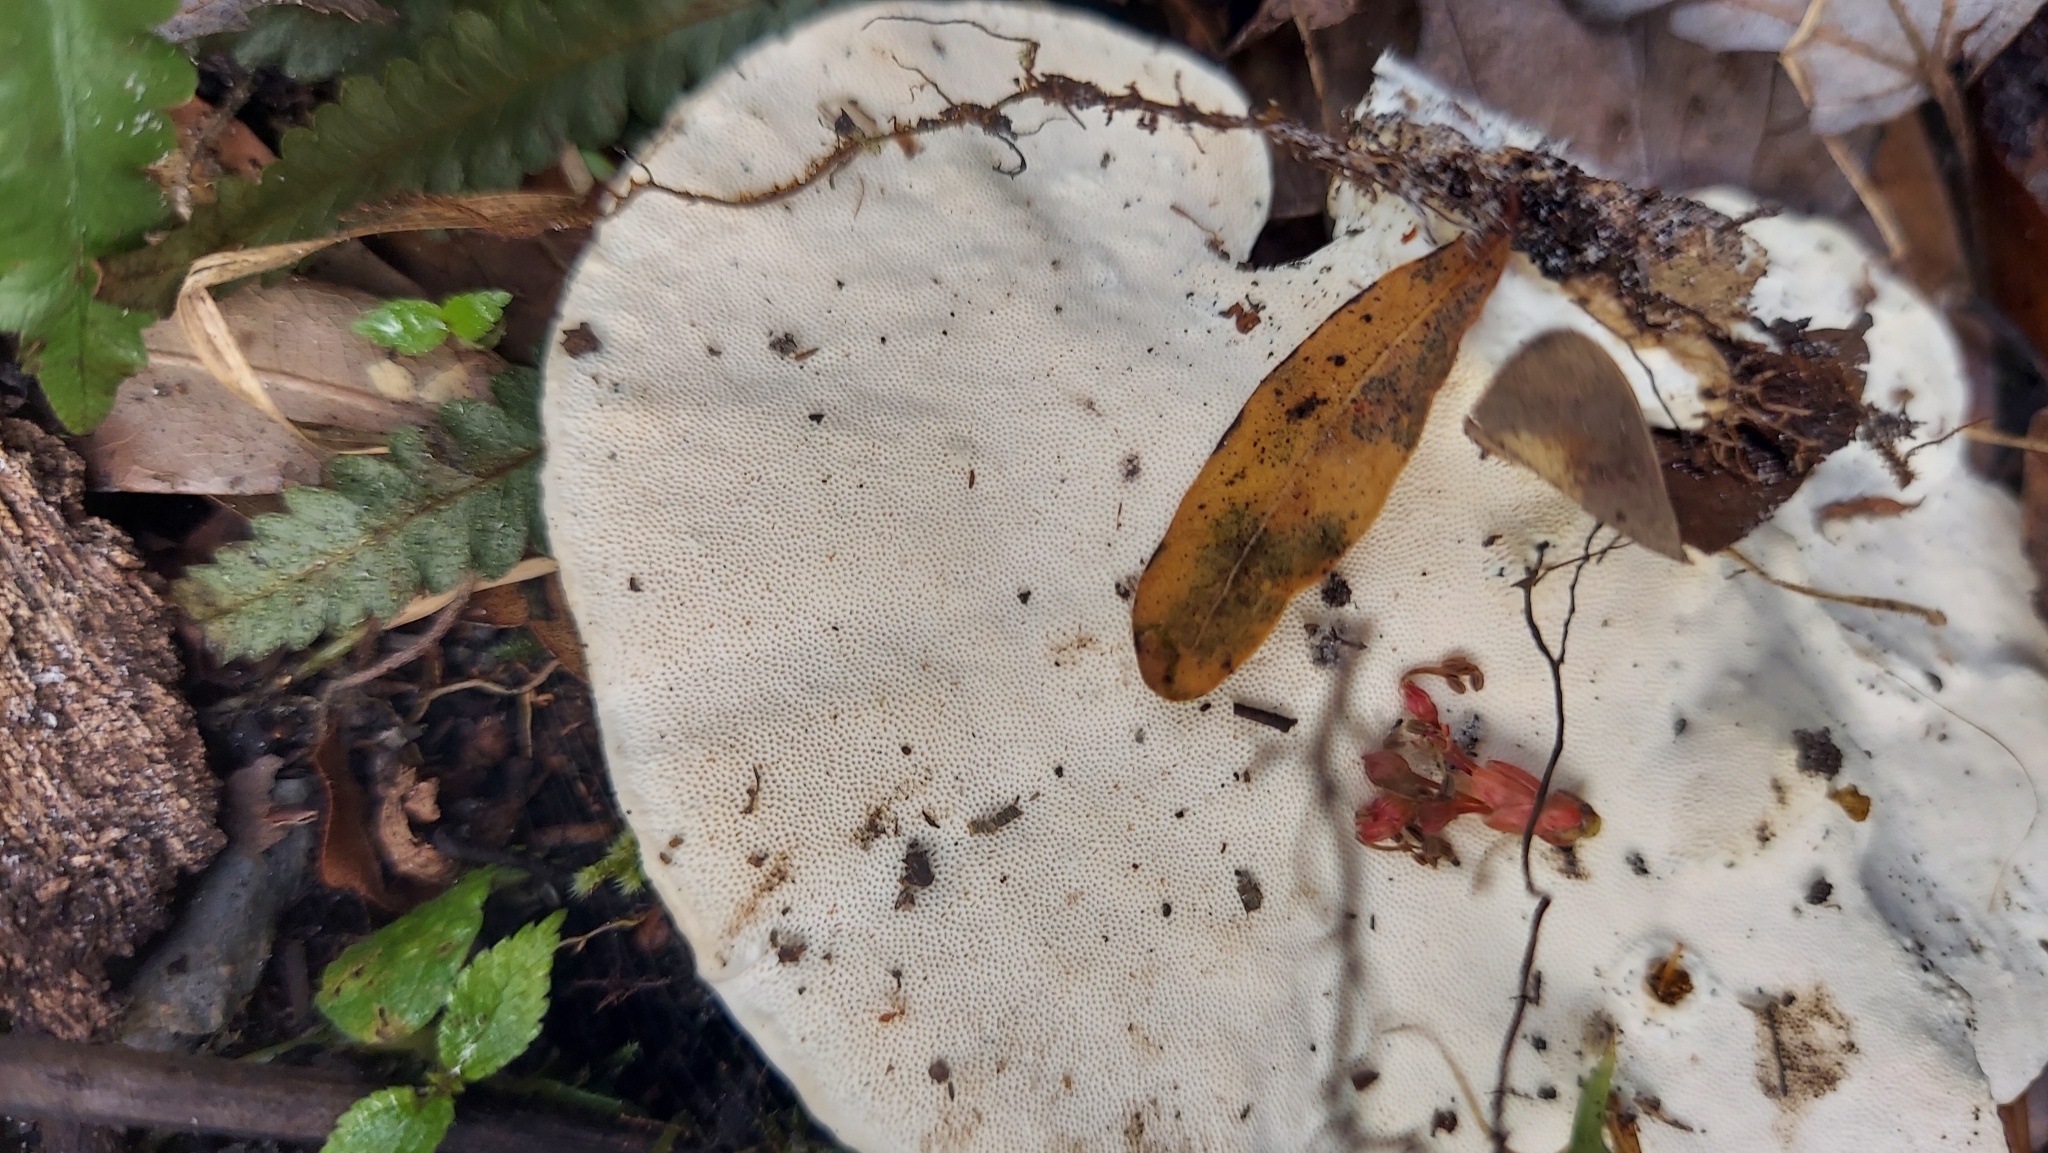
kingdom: Fungi
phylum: Basidiomycota
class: Agaricomycetes
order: Polyporales
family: Polyporaceae
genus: Trametes
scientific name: Trametes lactinea
